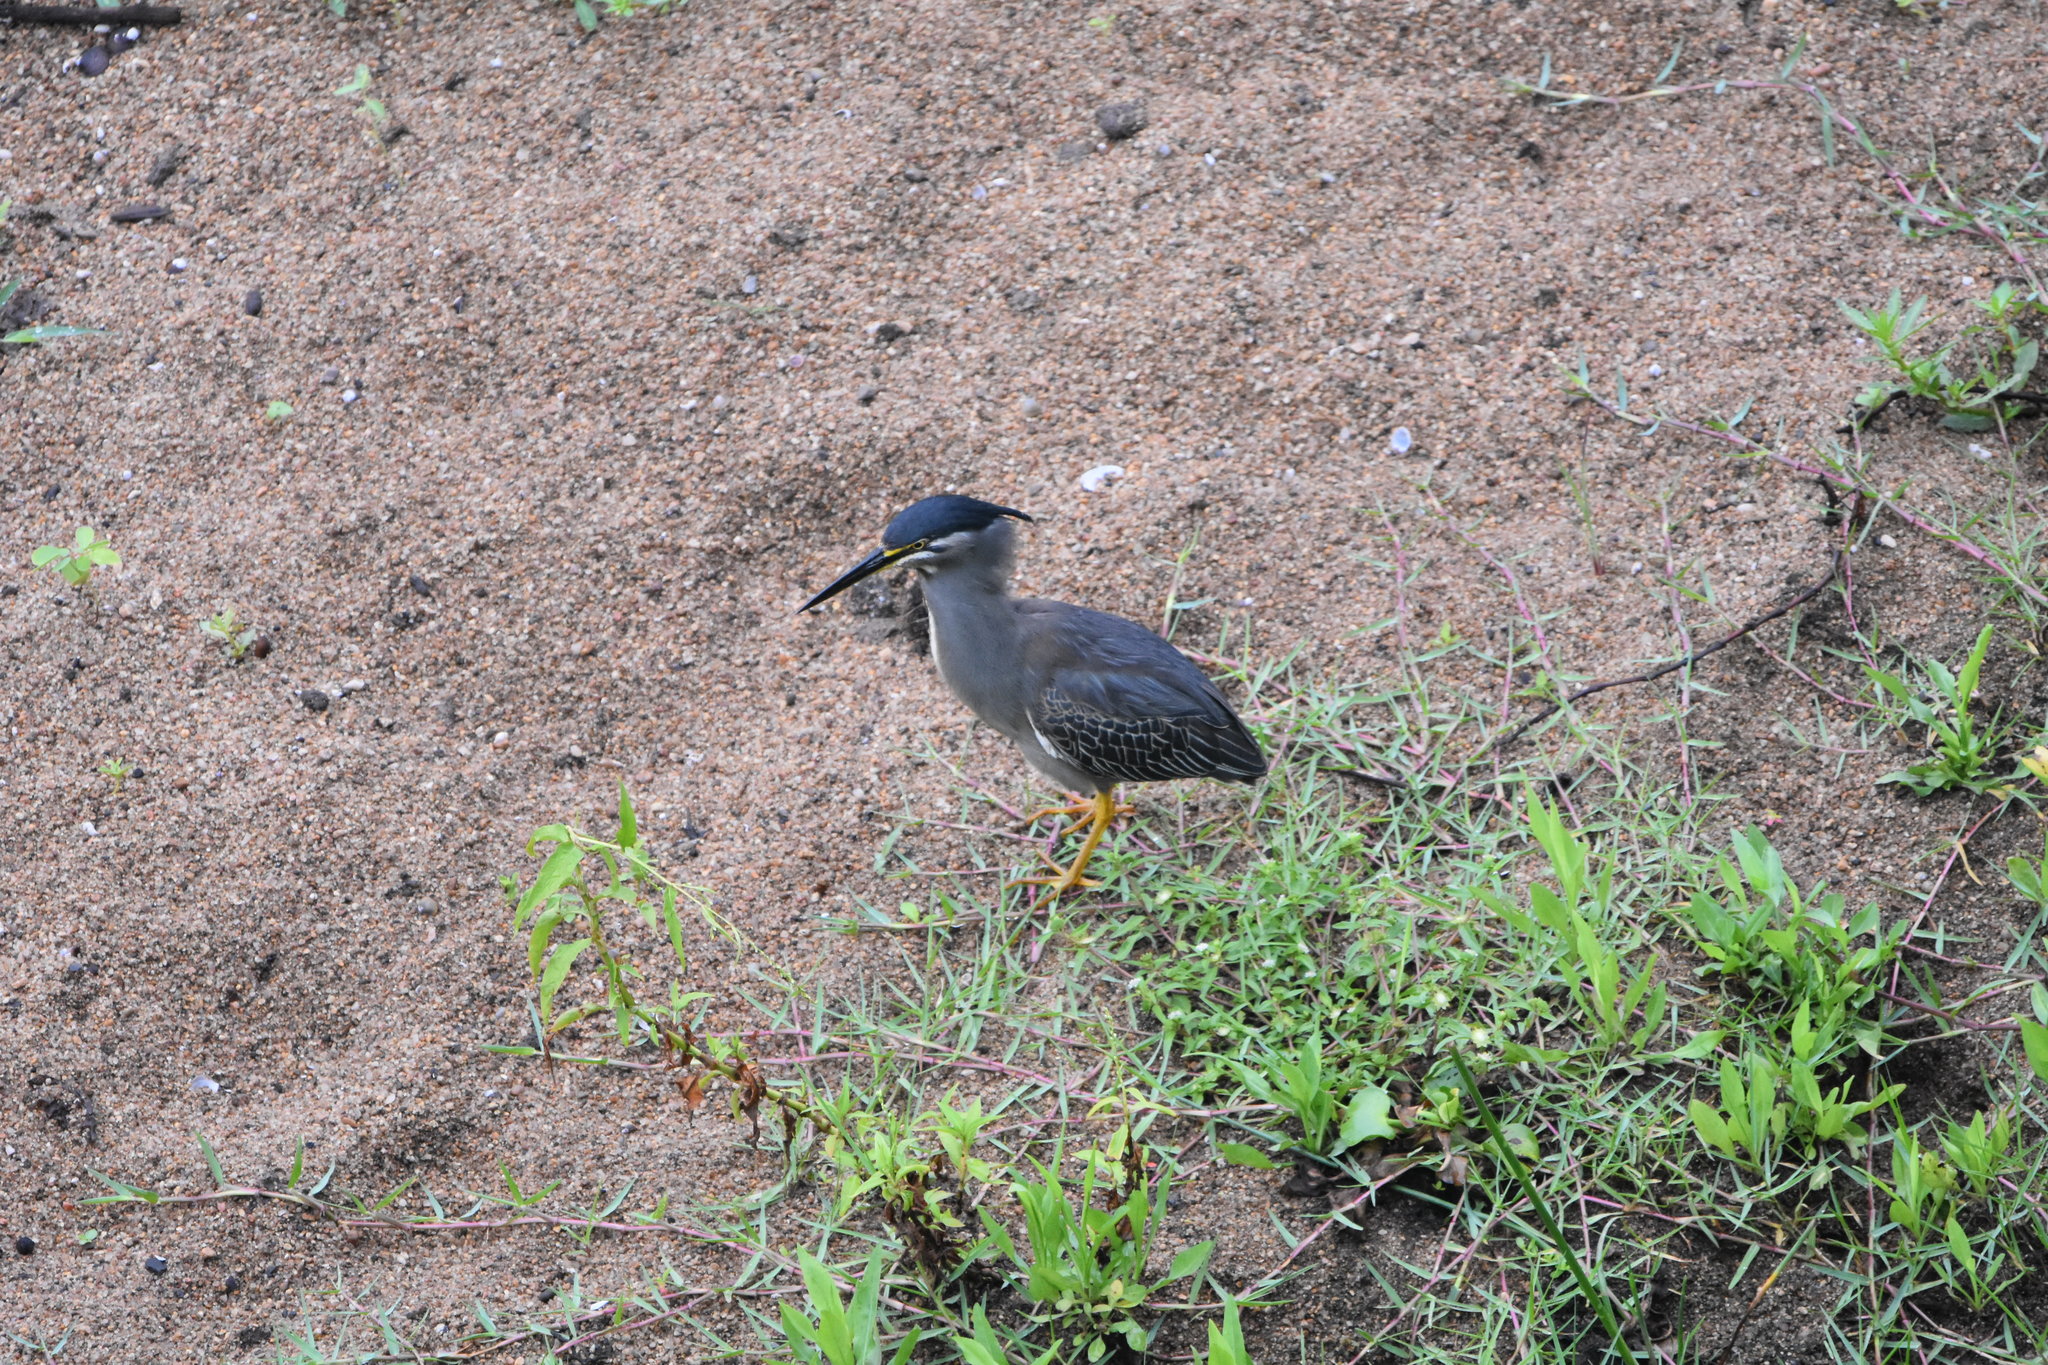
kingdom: Animalia
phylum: Chordata
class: Aves
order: Pelecaniformes
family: Ardeidae
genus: Butorides
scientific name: Butorides striata
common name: Striated heron
